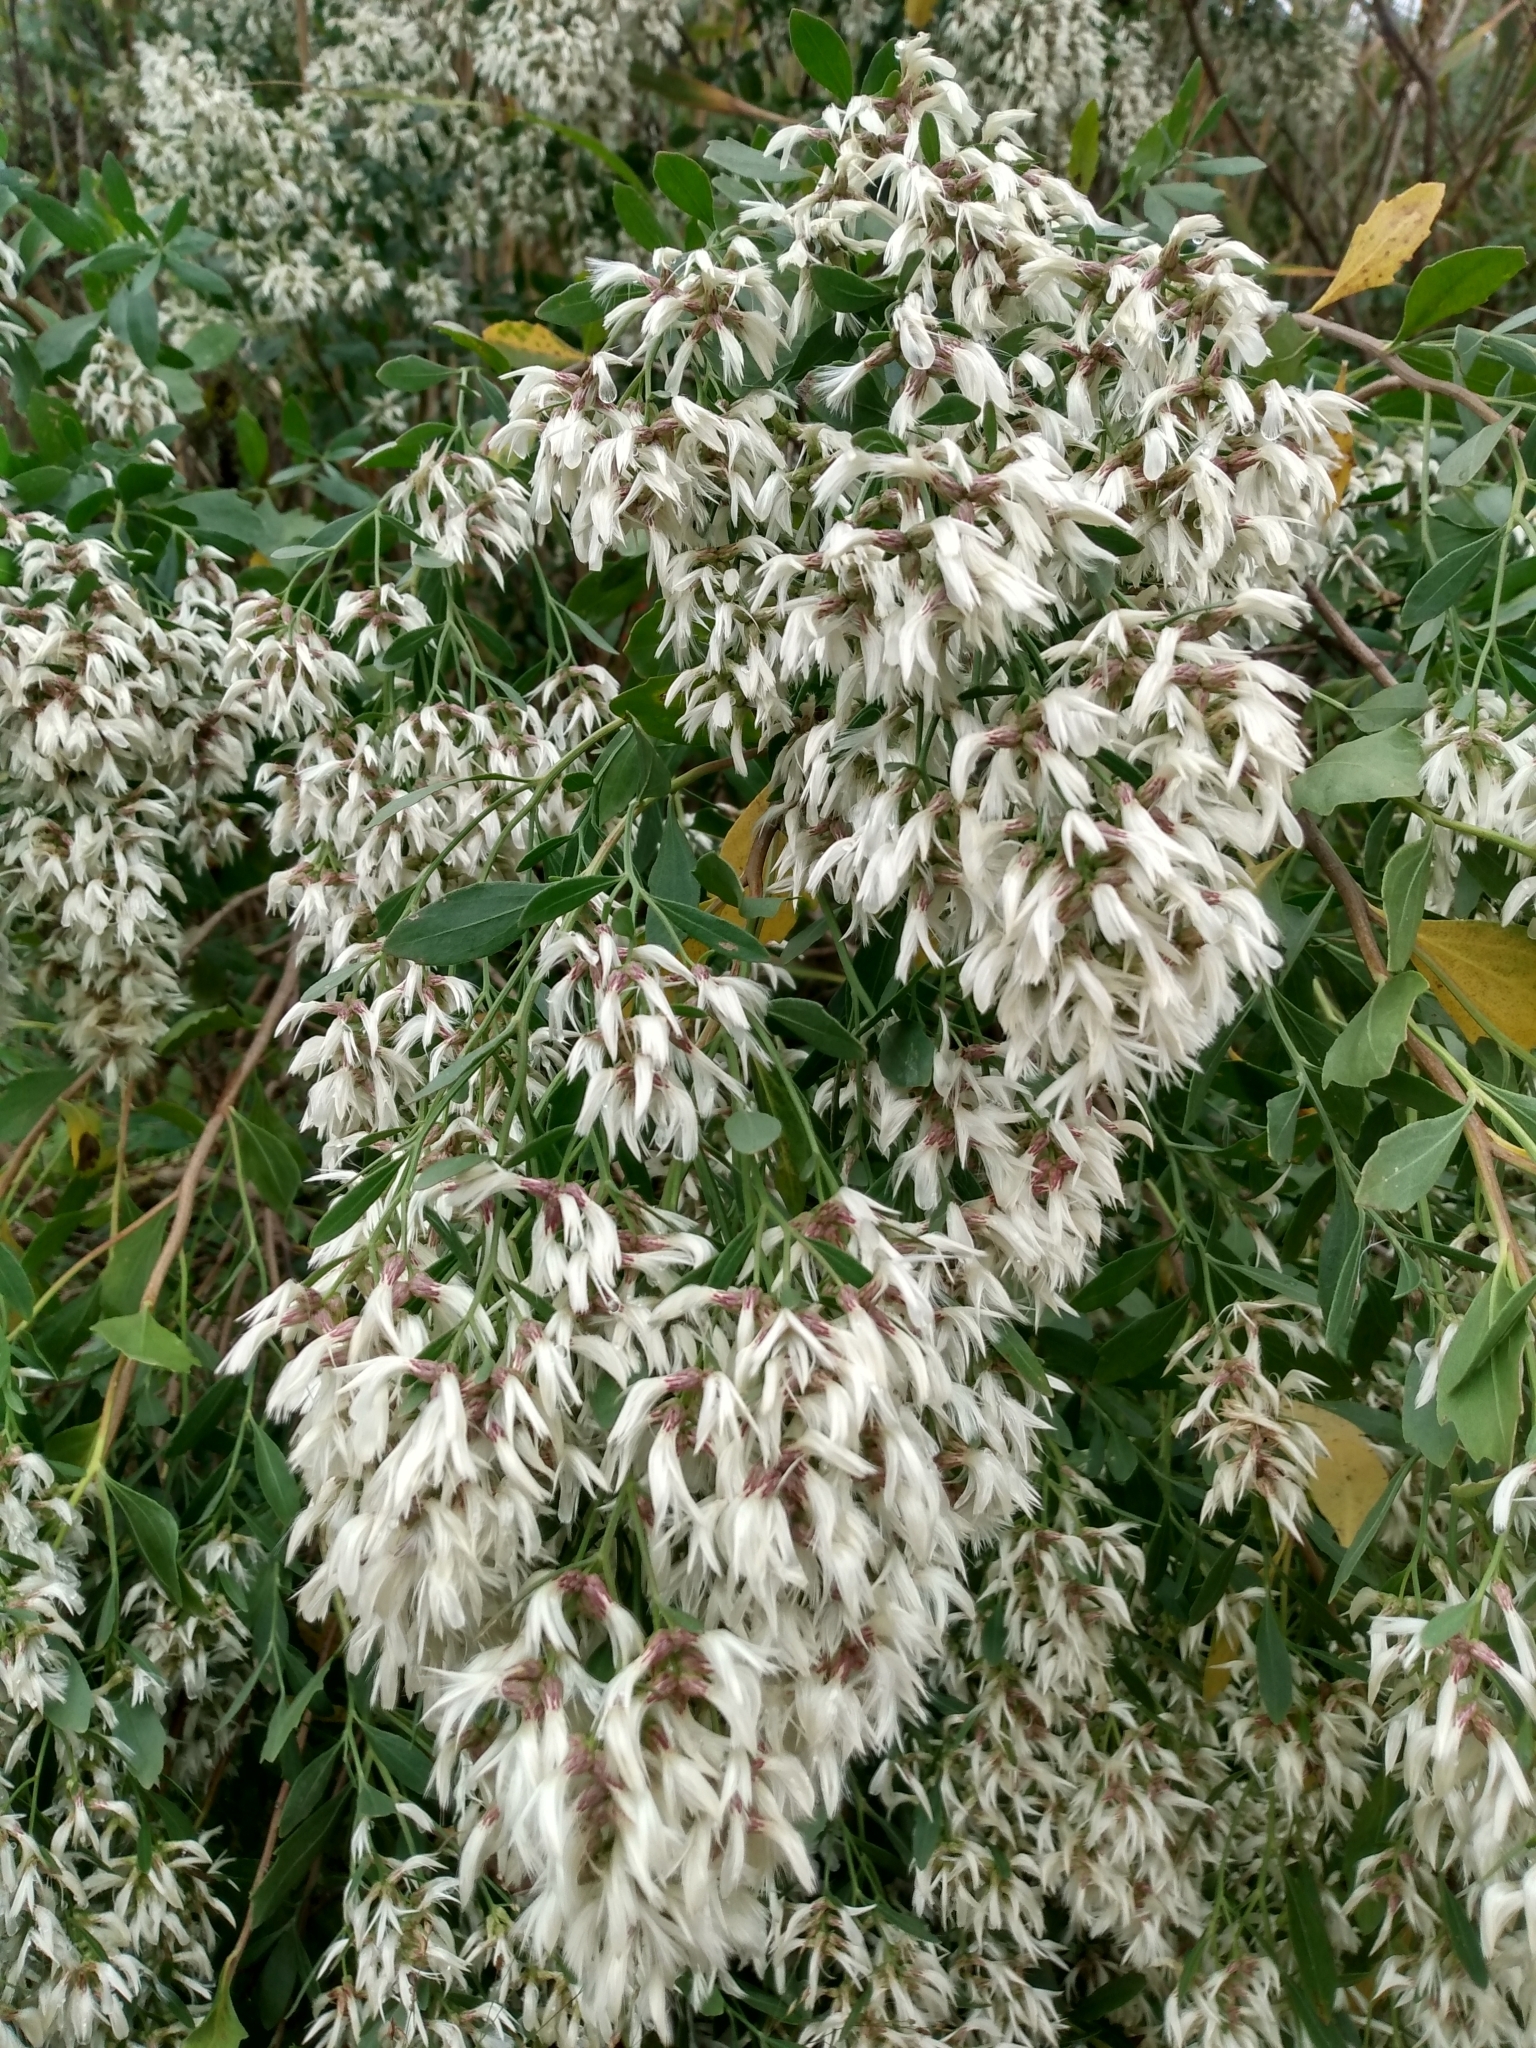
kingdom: Plantae
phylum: Tracheophyta
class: Magnoliopsida
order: Asterales
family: Asteraceae
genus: Baccharis
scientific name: Baccharis halimifolia
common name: Eastern baccharis
